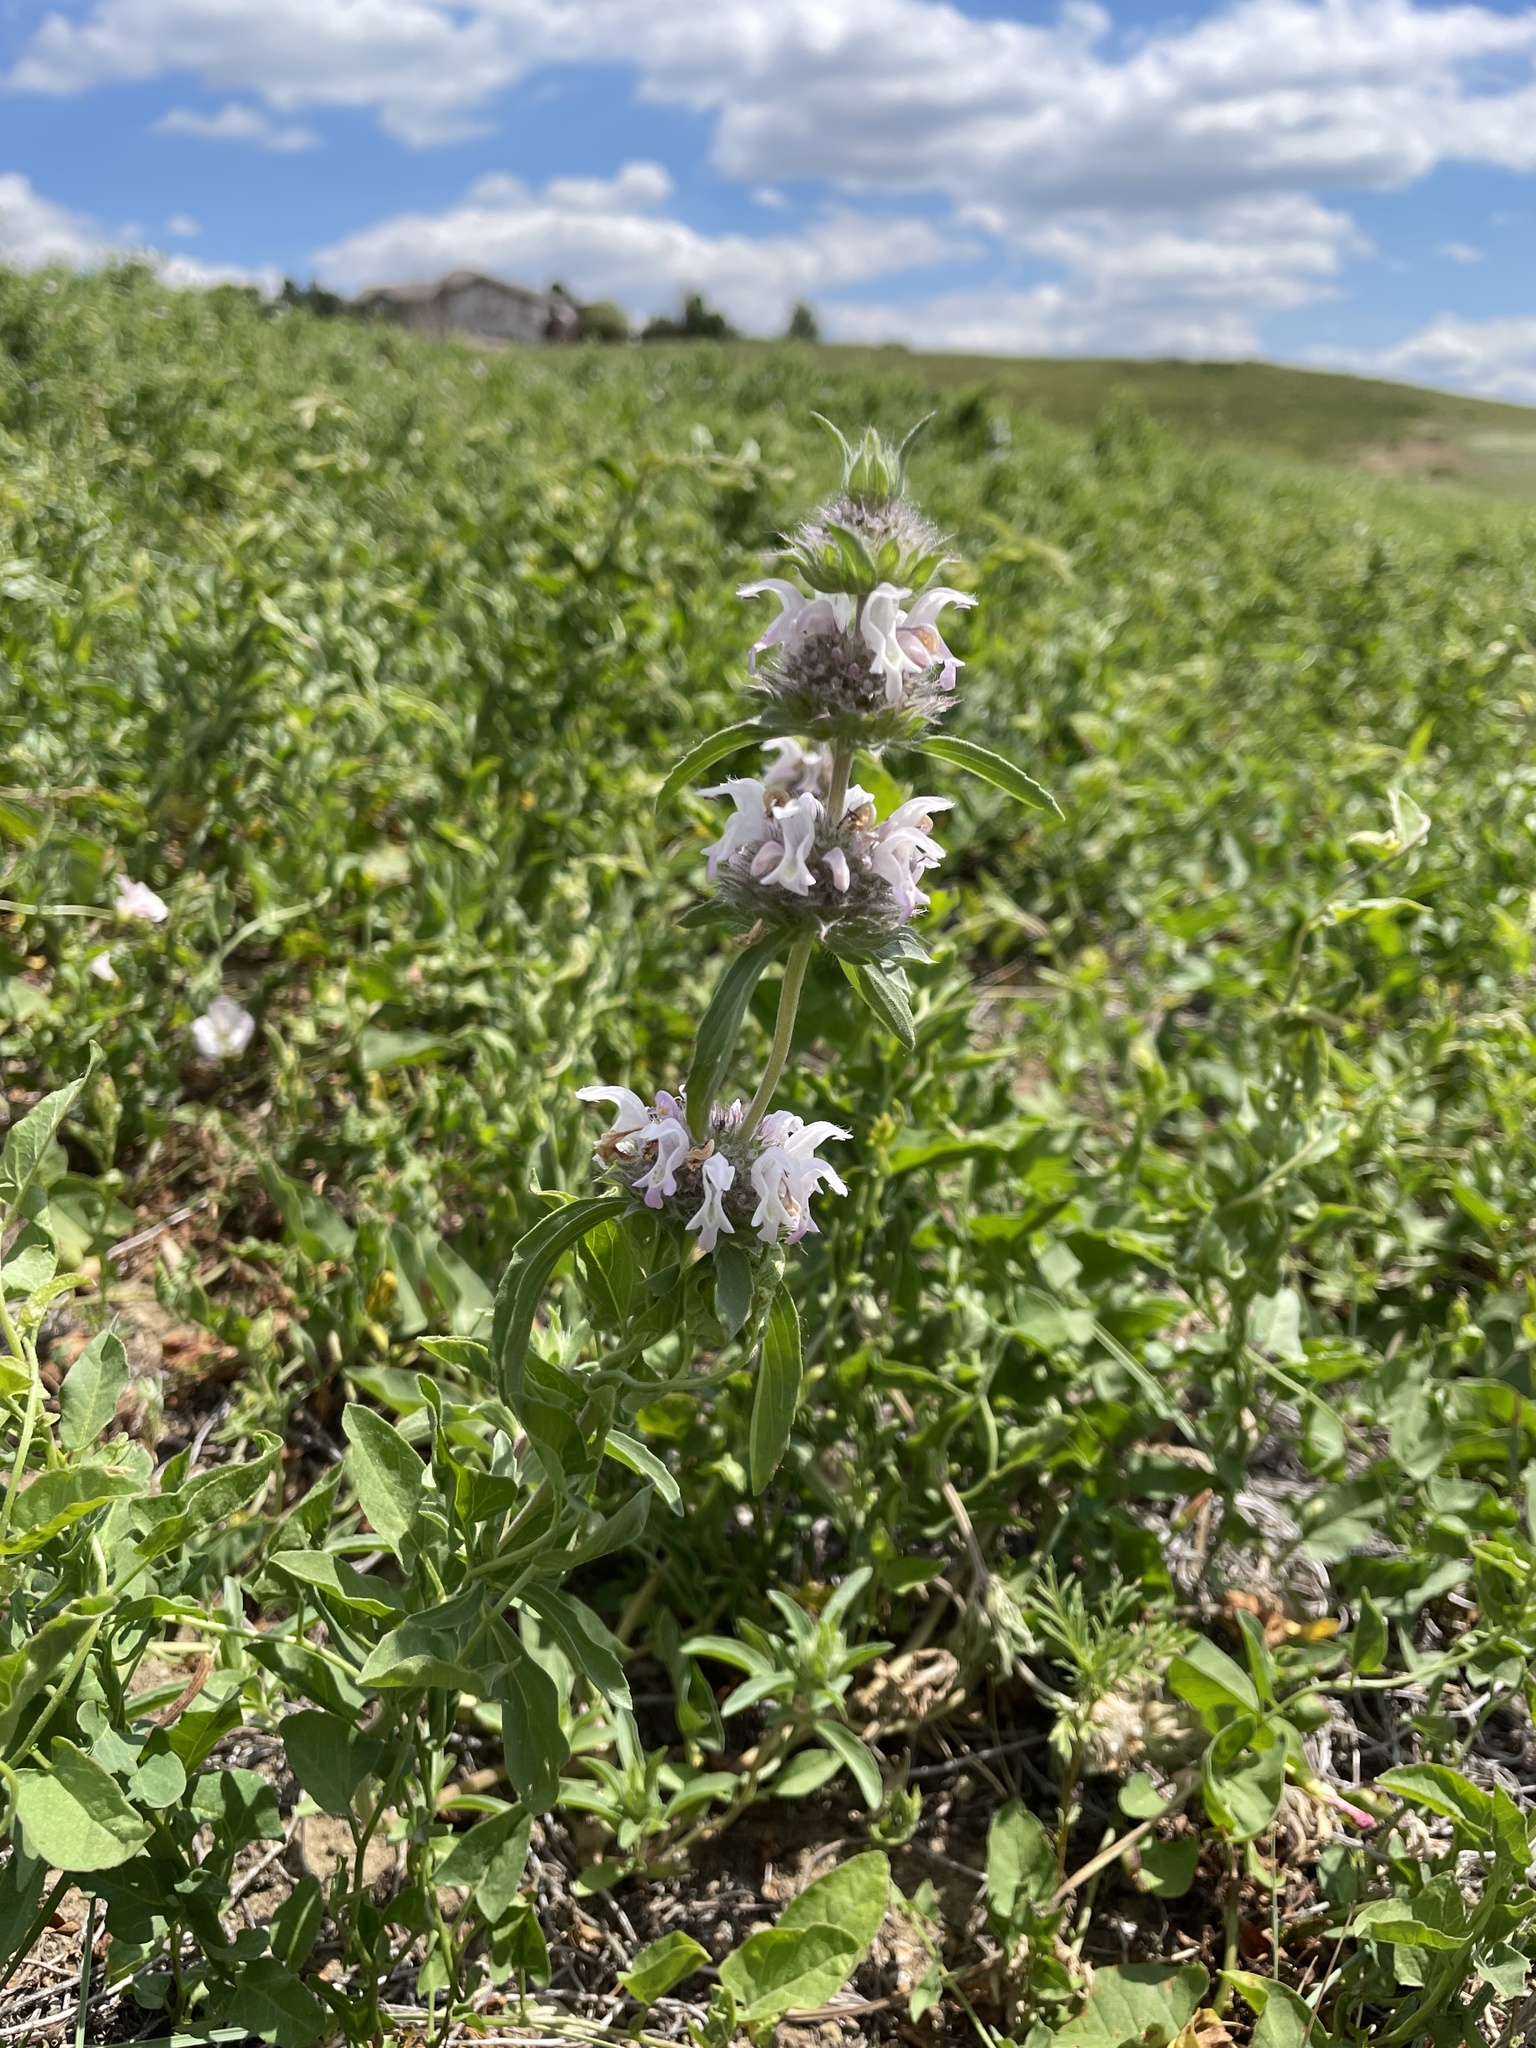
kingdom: Plantae
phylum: Tracheophyta
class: Magnoliopsida
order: Lamiales
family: Lamiaceae
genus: Monarda
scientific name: Monarda pectinata
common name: Plains beebalm
